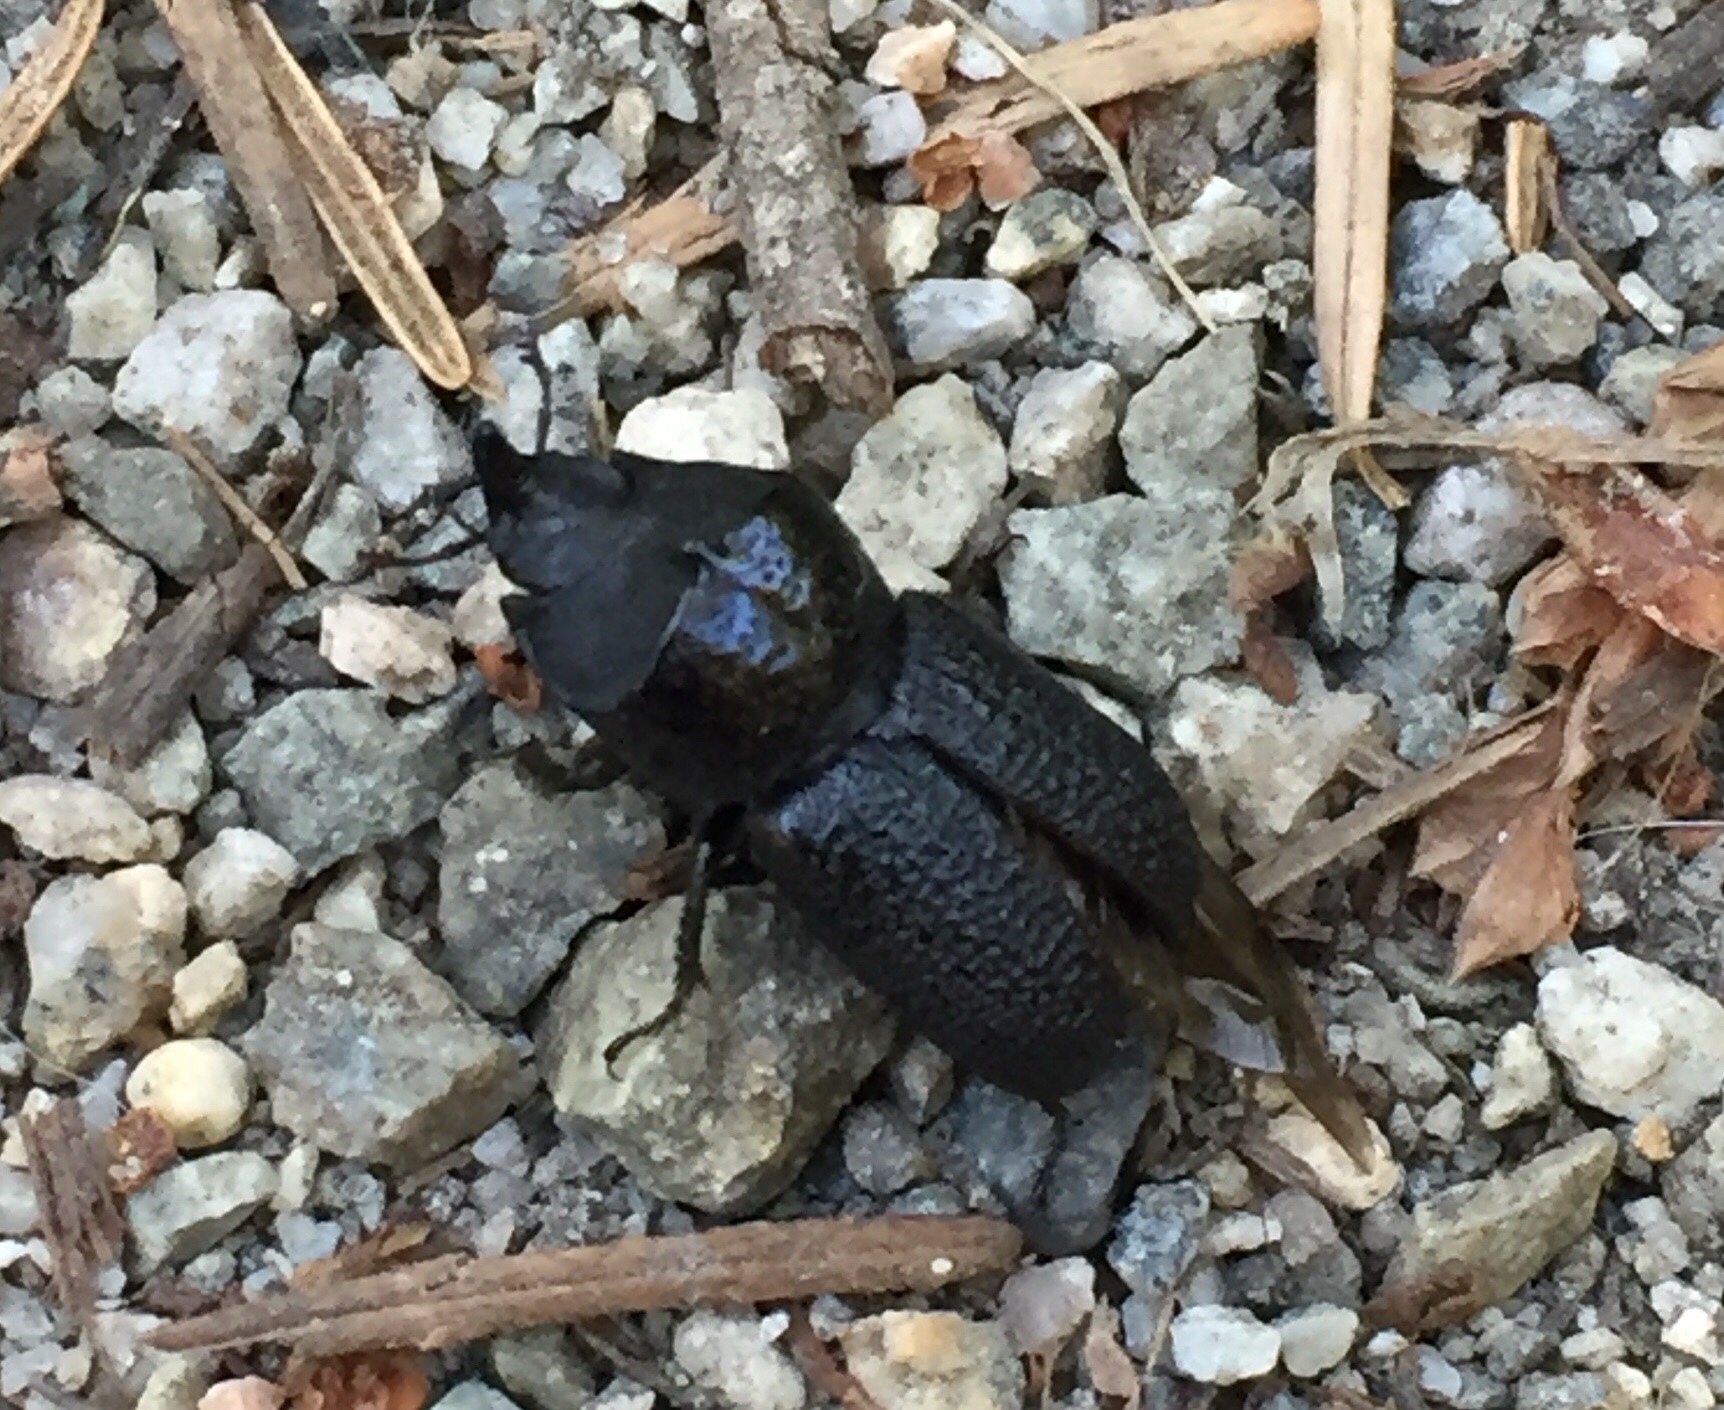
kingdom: Animalia
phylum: Arthropoda
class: Insecta
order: Coleoptera
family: Lucanidae
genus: Sinodendron
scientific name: Sinodendron rugosum
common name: Rugose stag beelte
